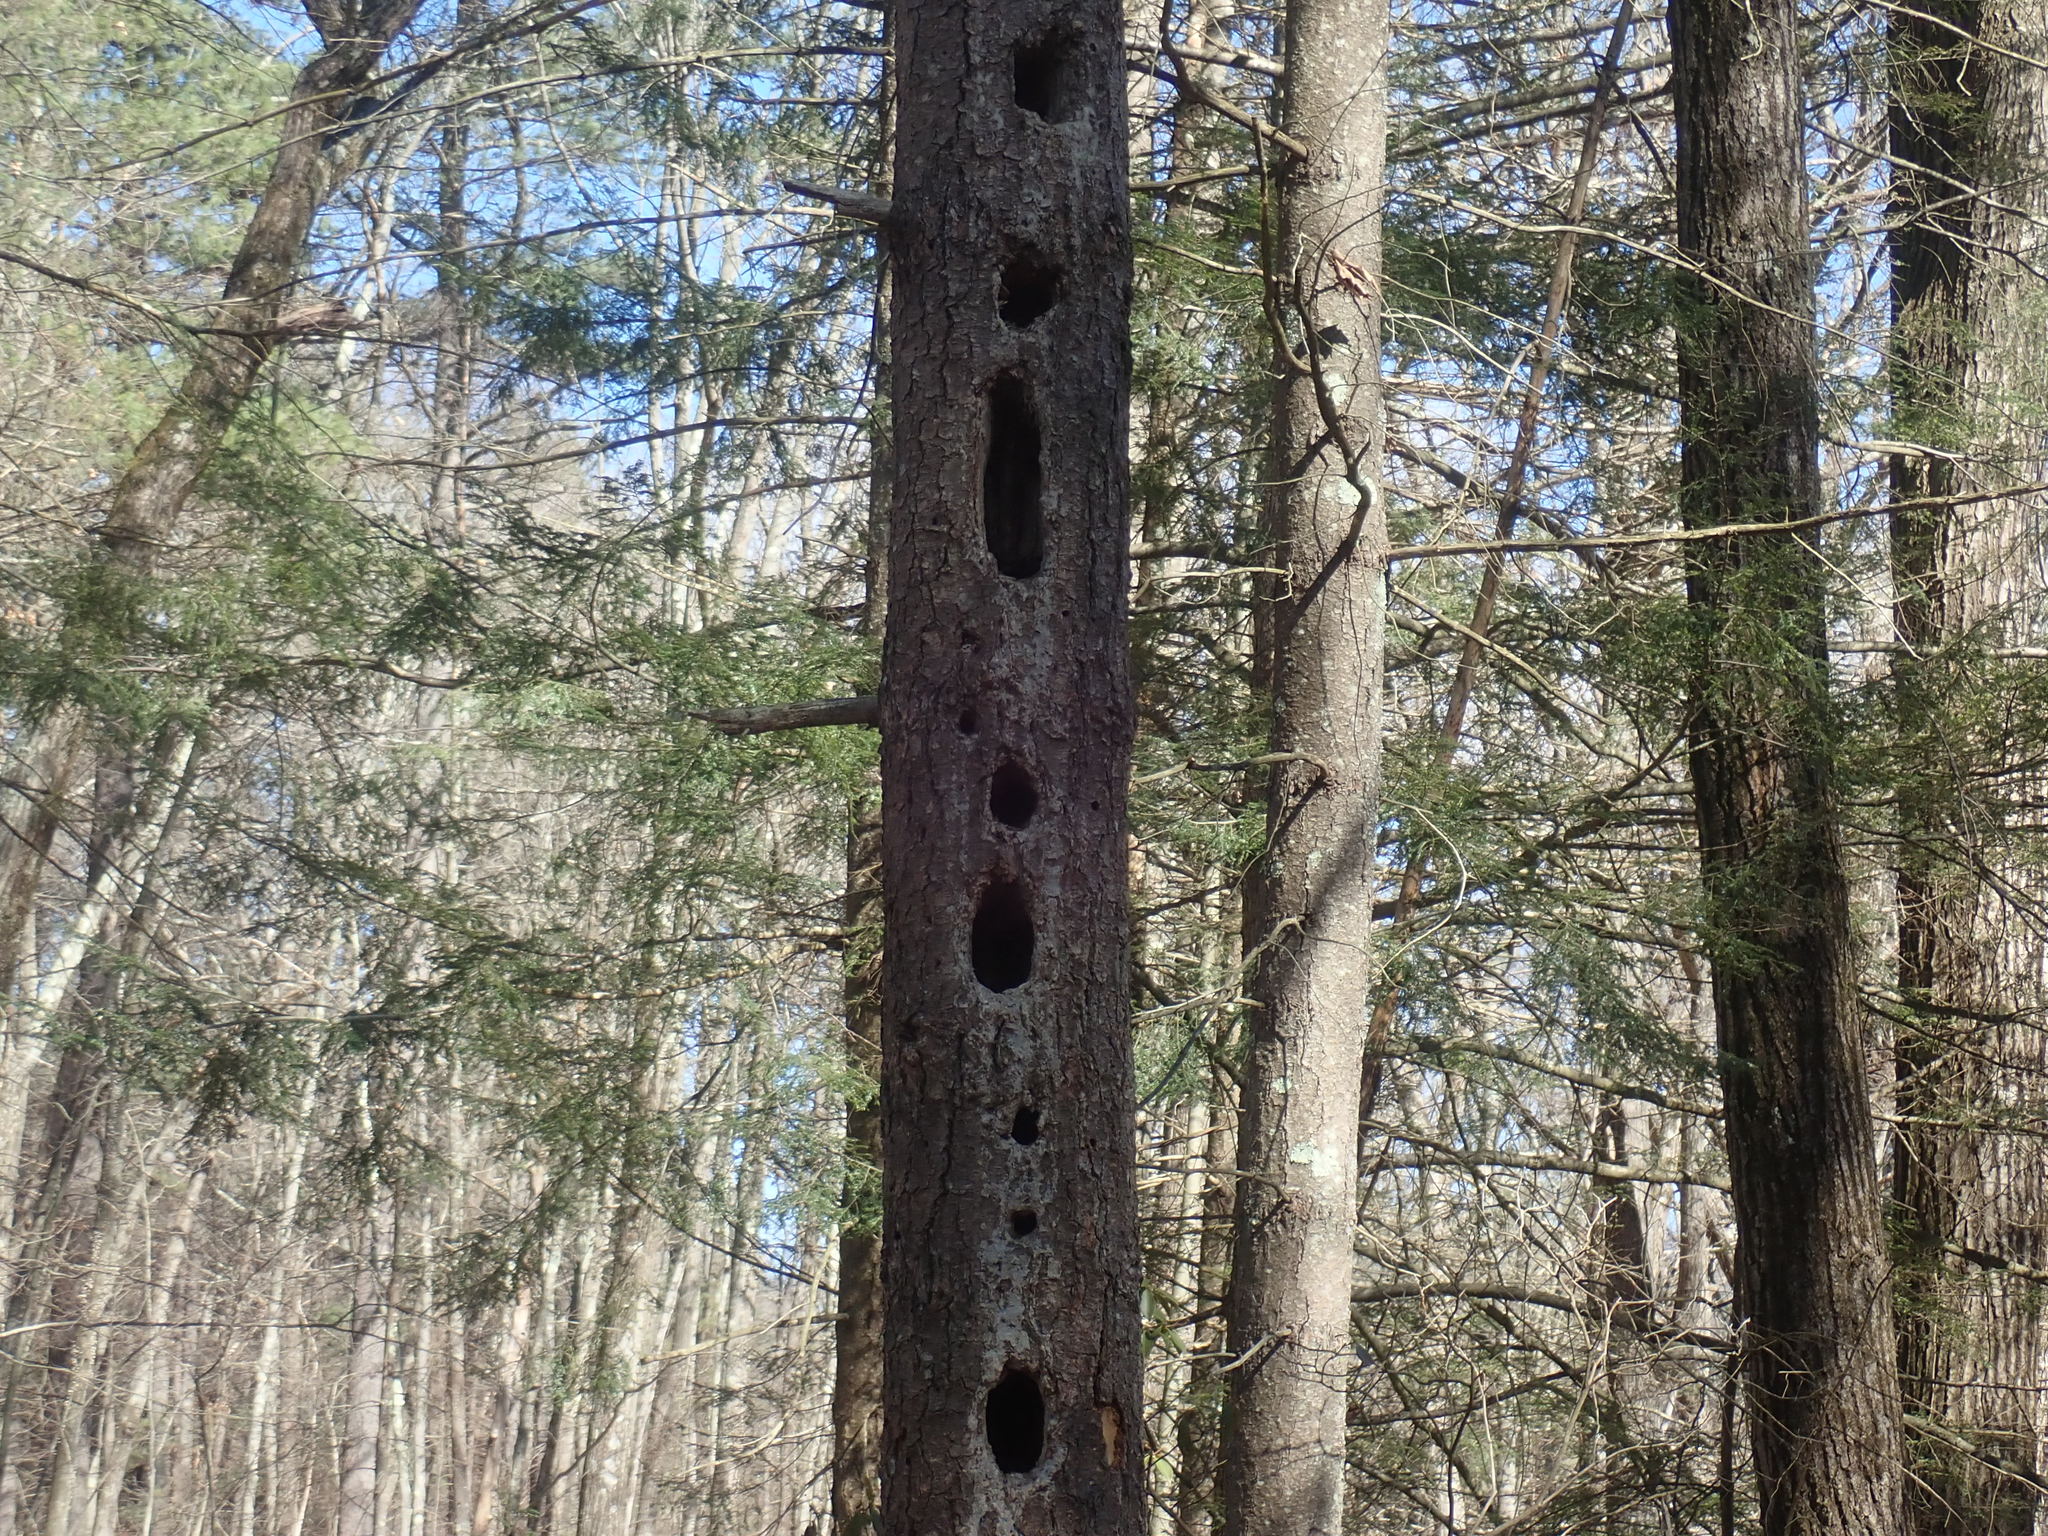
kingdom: Animalia
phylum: Chordata
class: Aves
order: Piciformes
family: Picidae
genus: Dryocopus
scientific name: Dryocopus pileatus
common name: Pileated woodpecker
